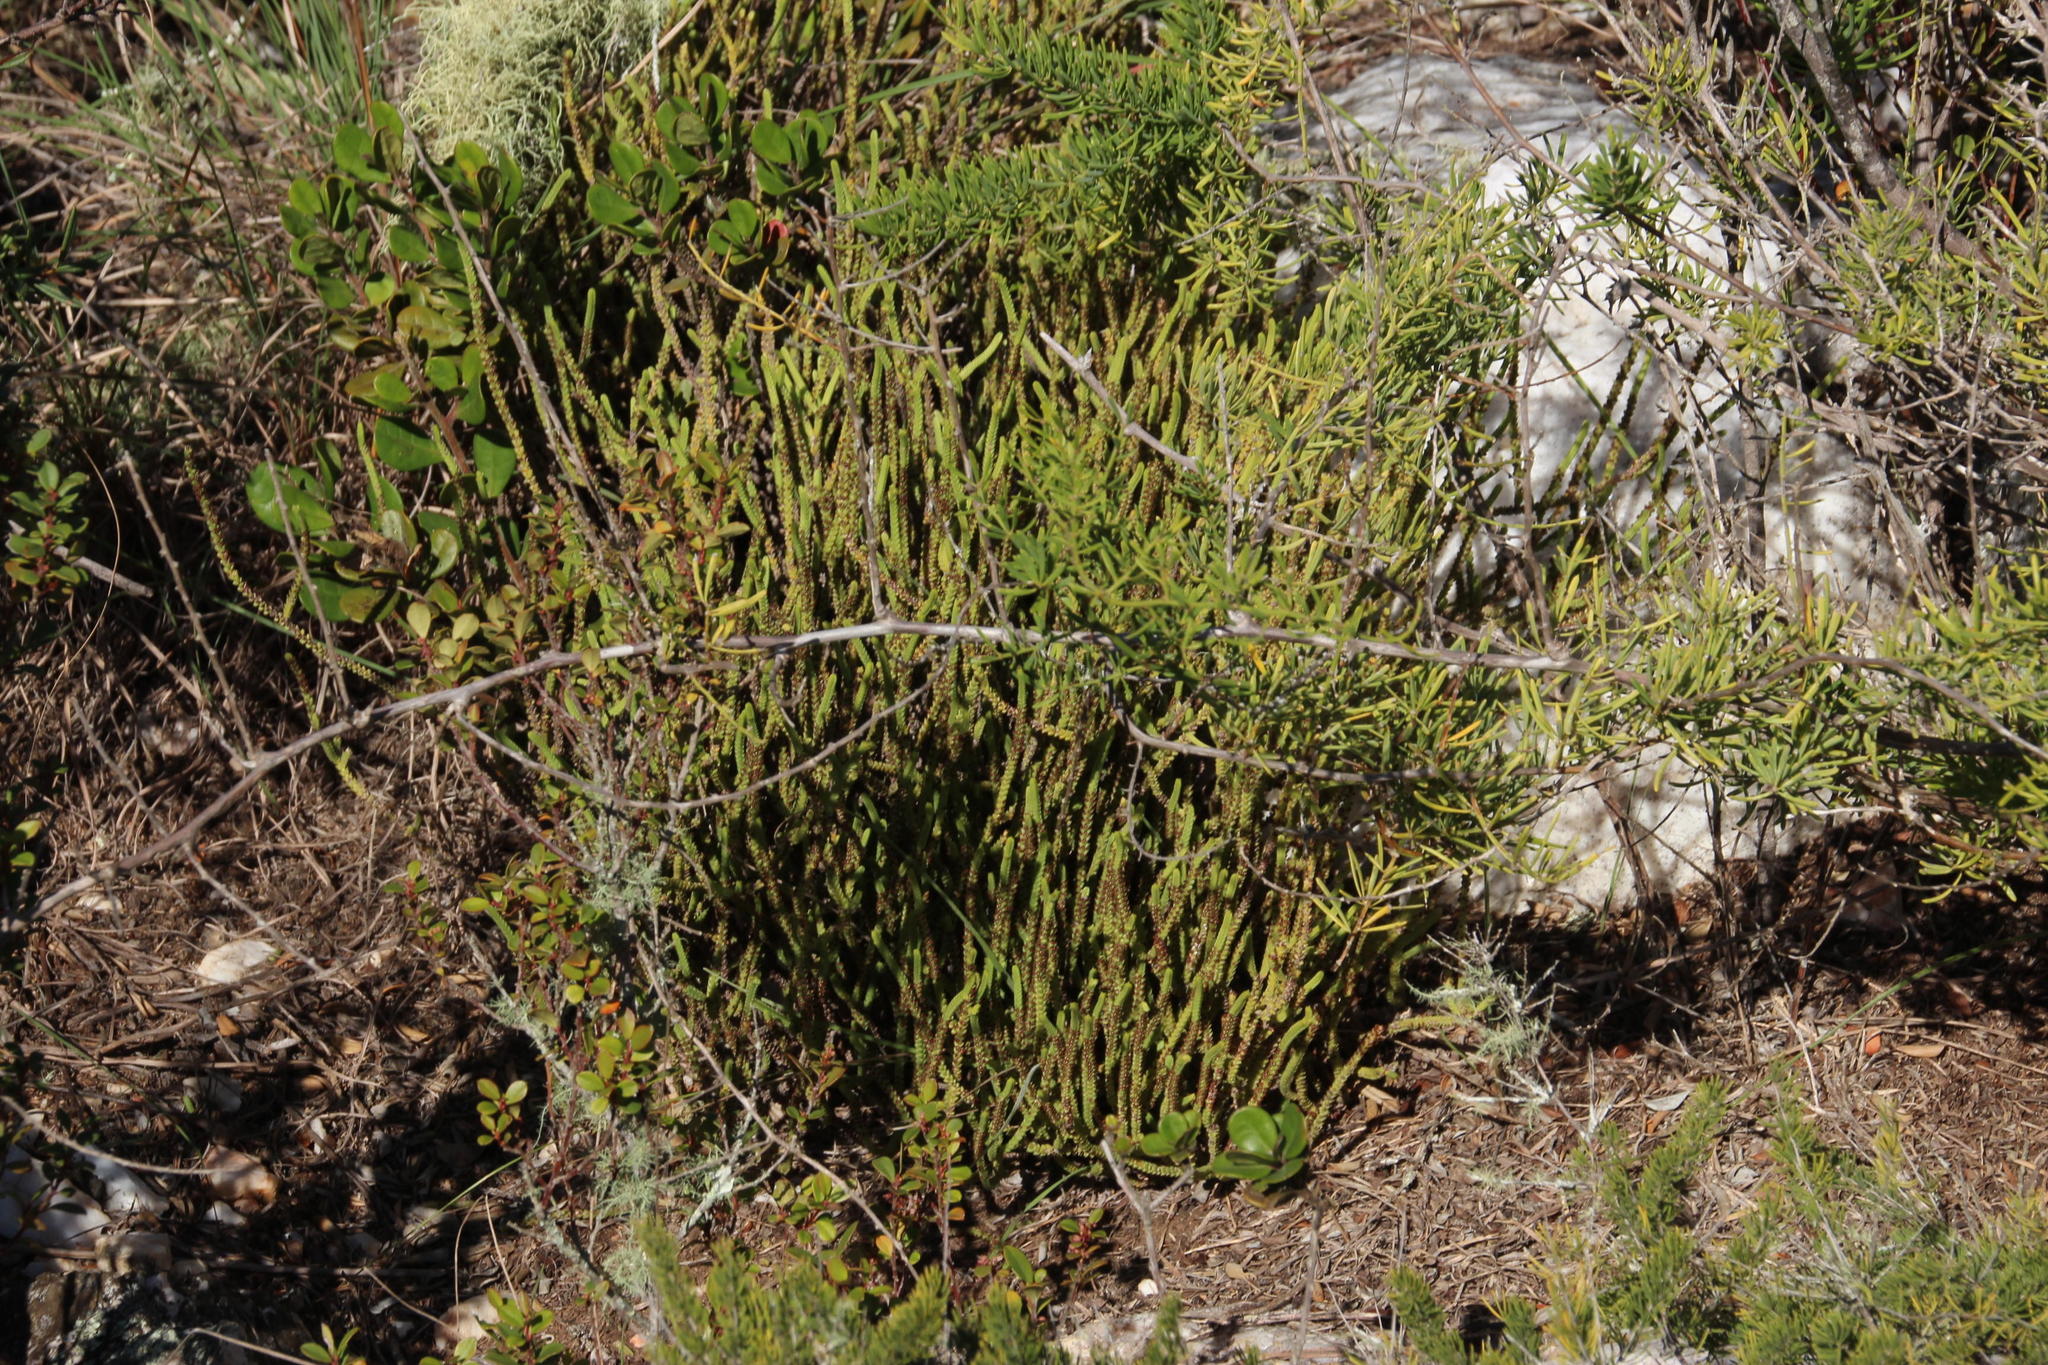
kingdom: Plantae
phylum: Tracheophyta
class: Magnoliopsida
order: Saxifragales
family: Crassulaceae
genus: Crassula
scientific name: Crassula muscosa
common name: Toy-cypress
